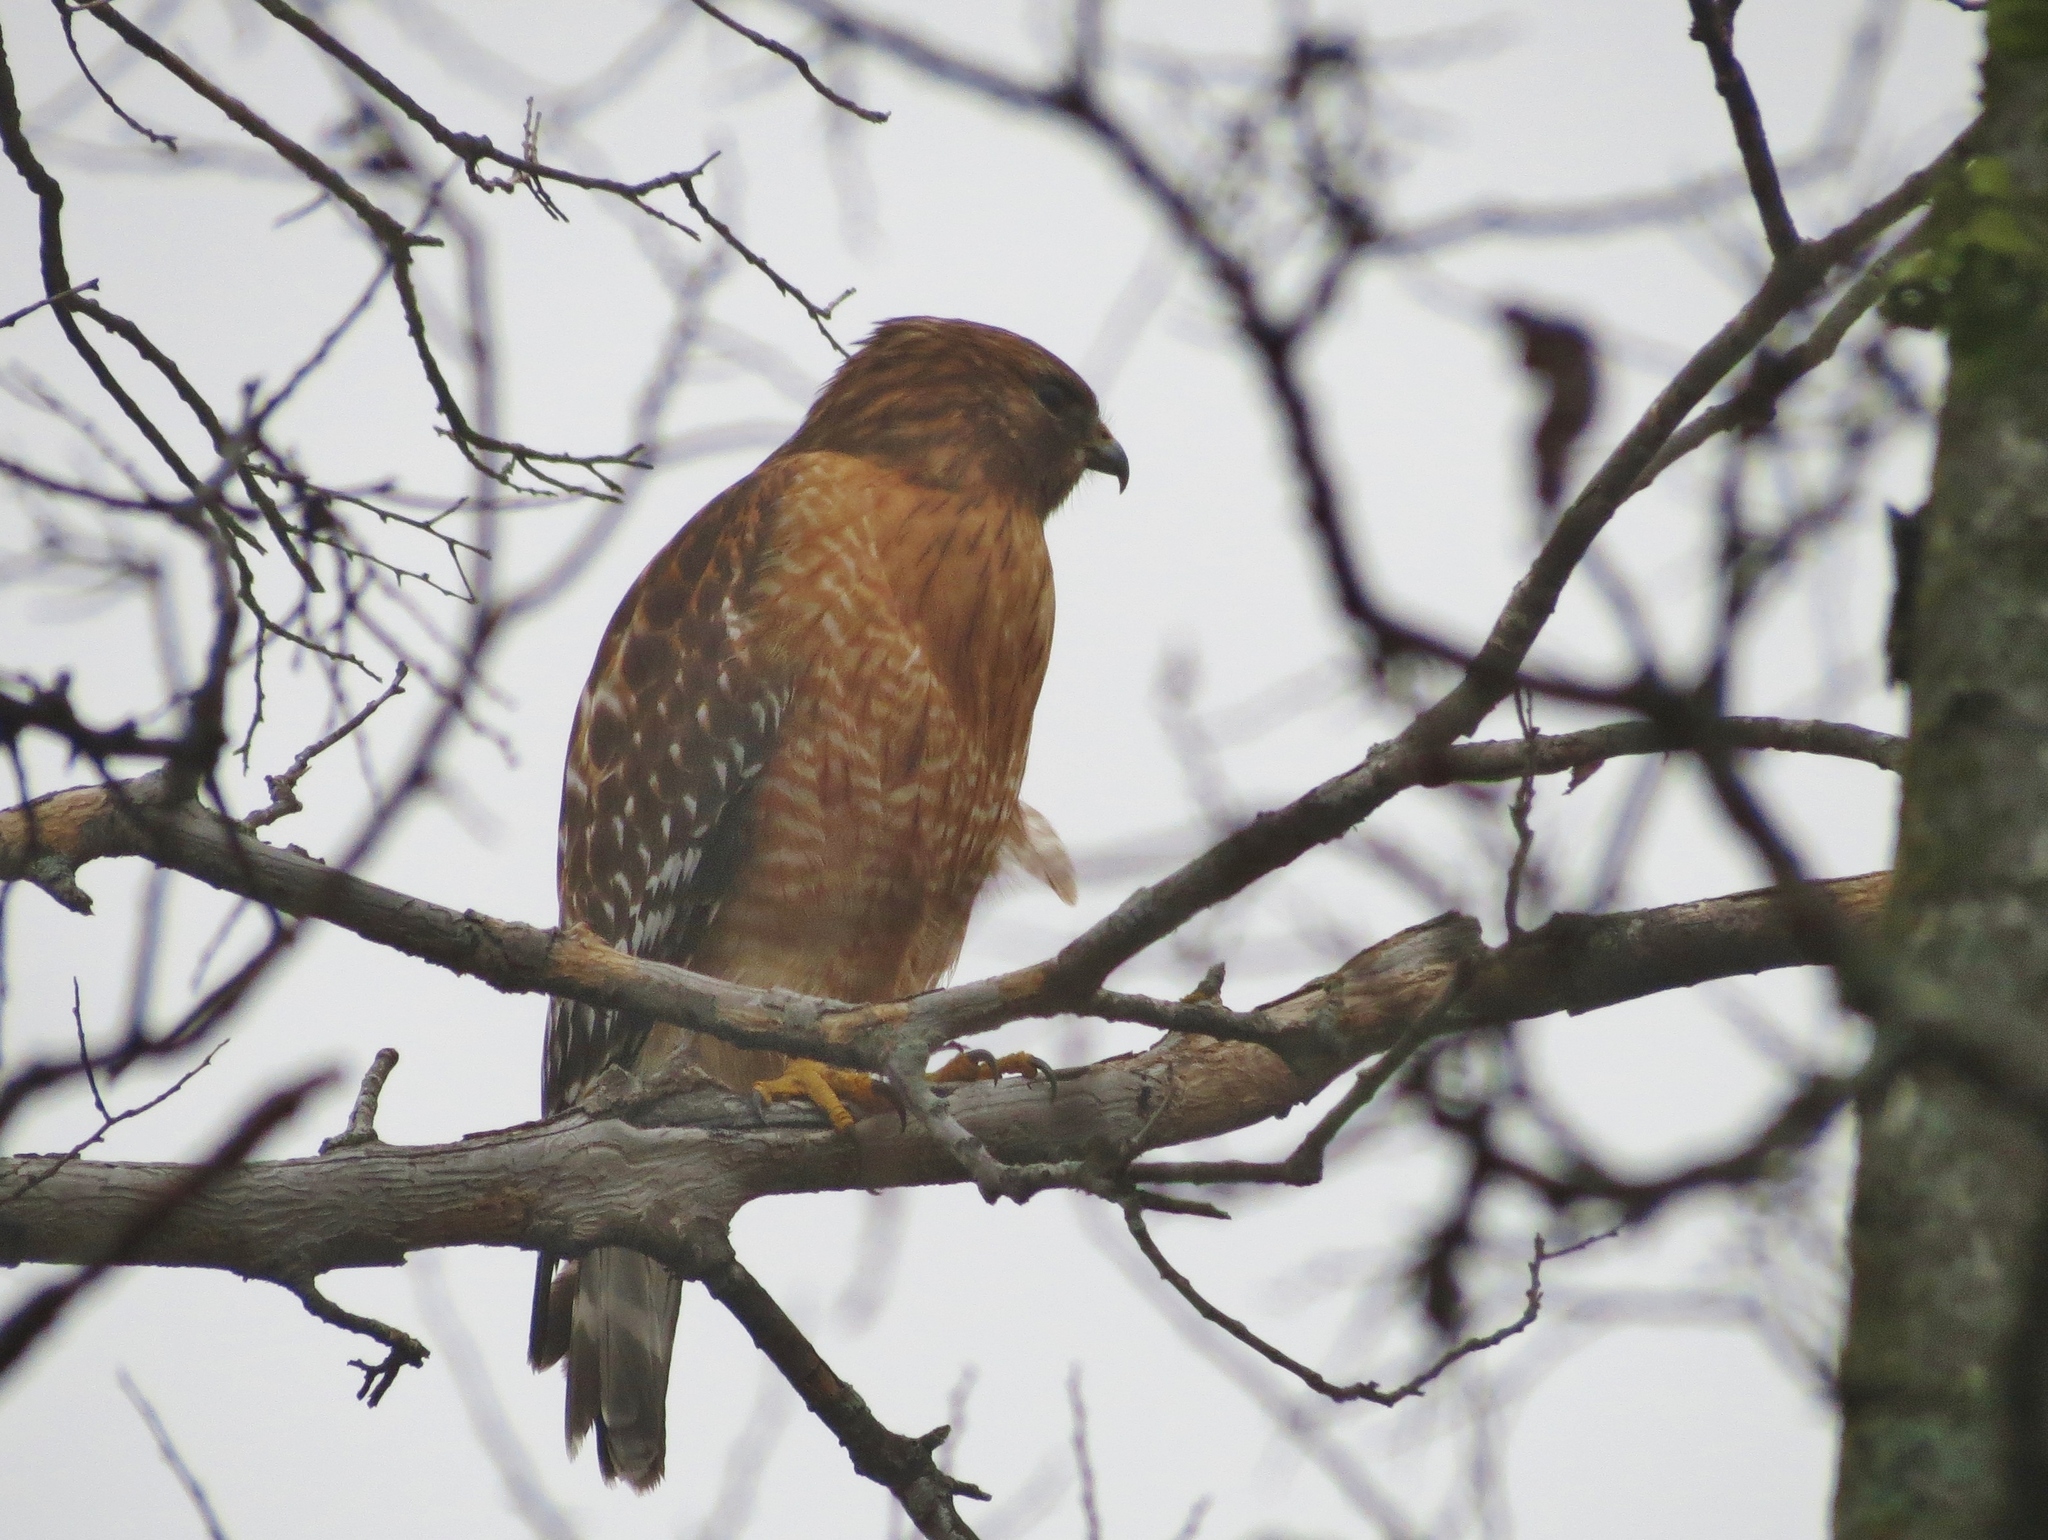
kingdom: Animalia
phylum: Chordata
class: Aves
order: Accipitriformes
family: Accipitridae
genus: Buteo
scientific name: Buteo lineatus
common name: Red-shouldered hawk
